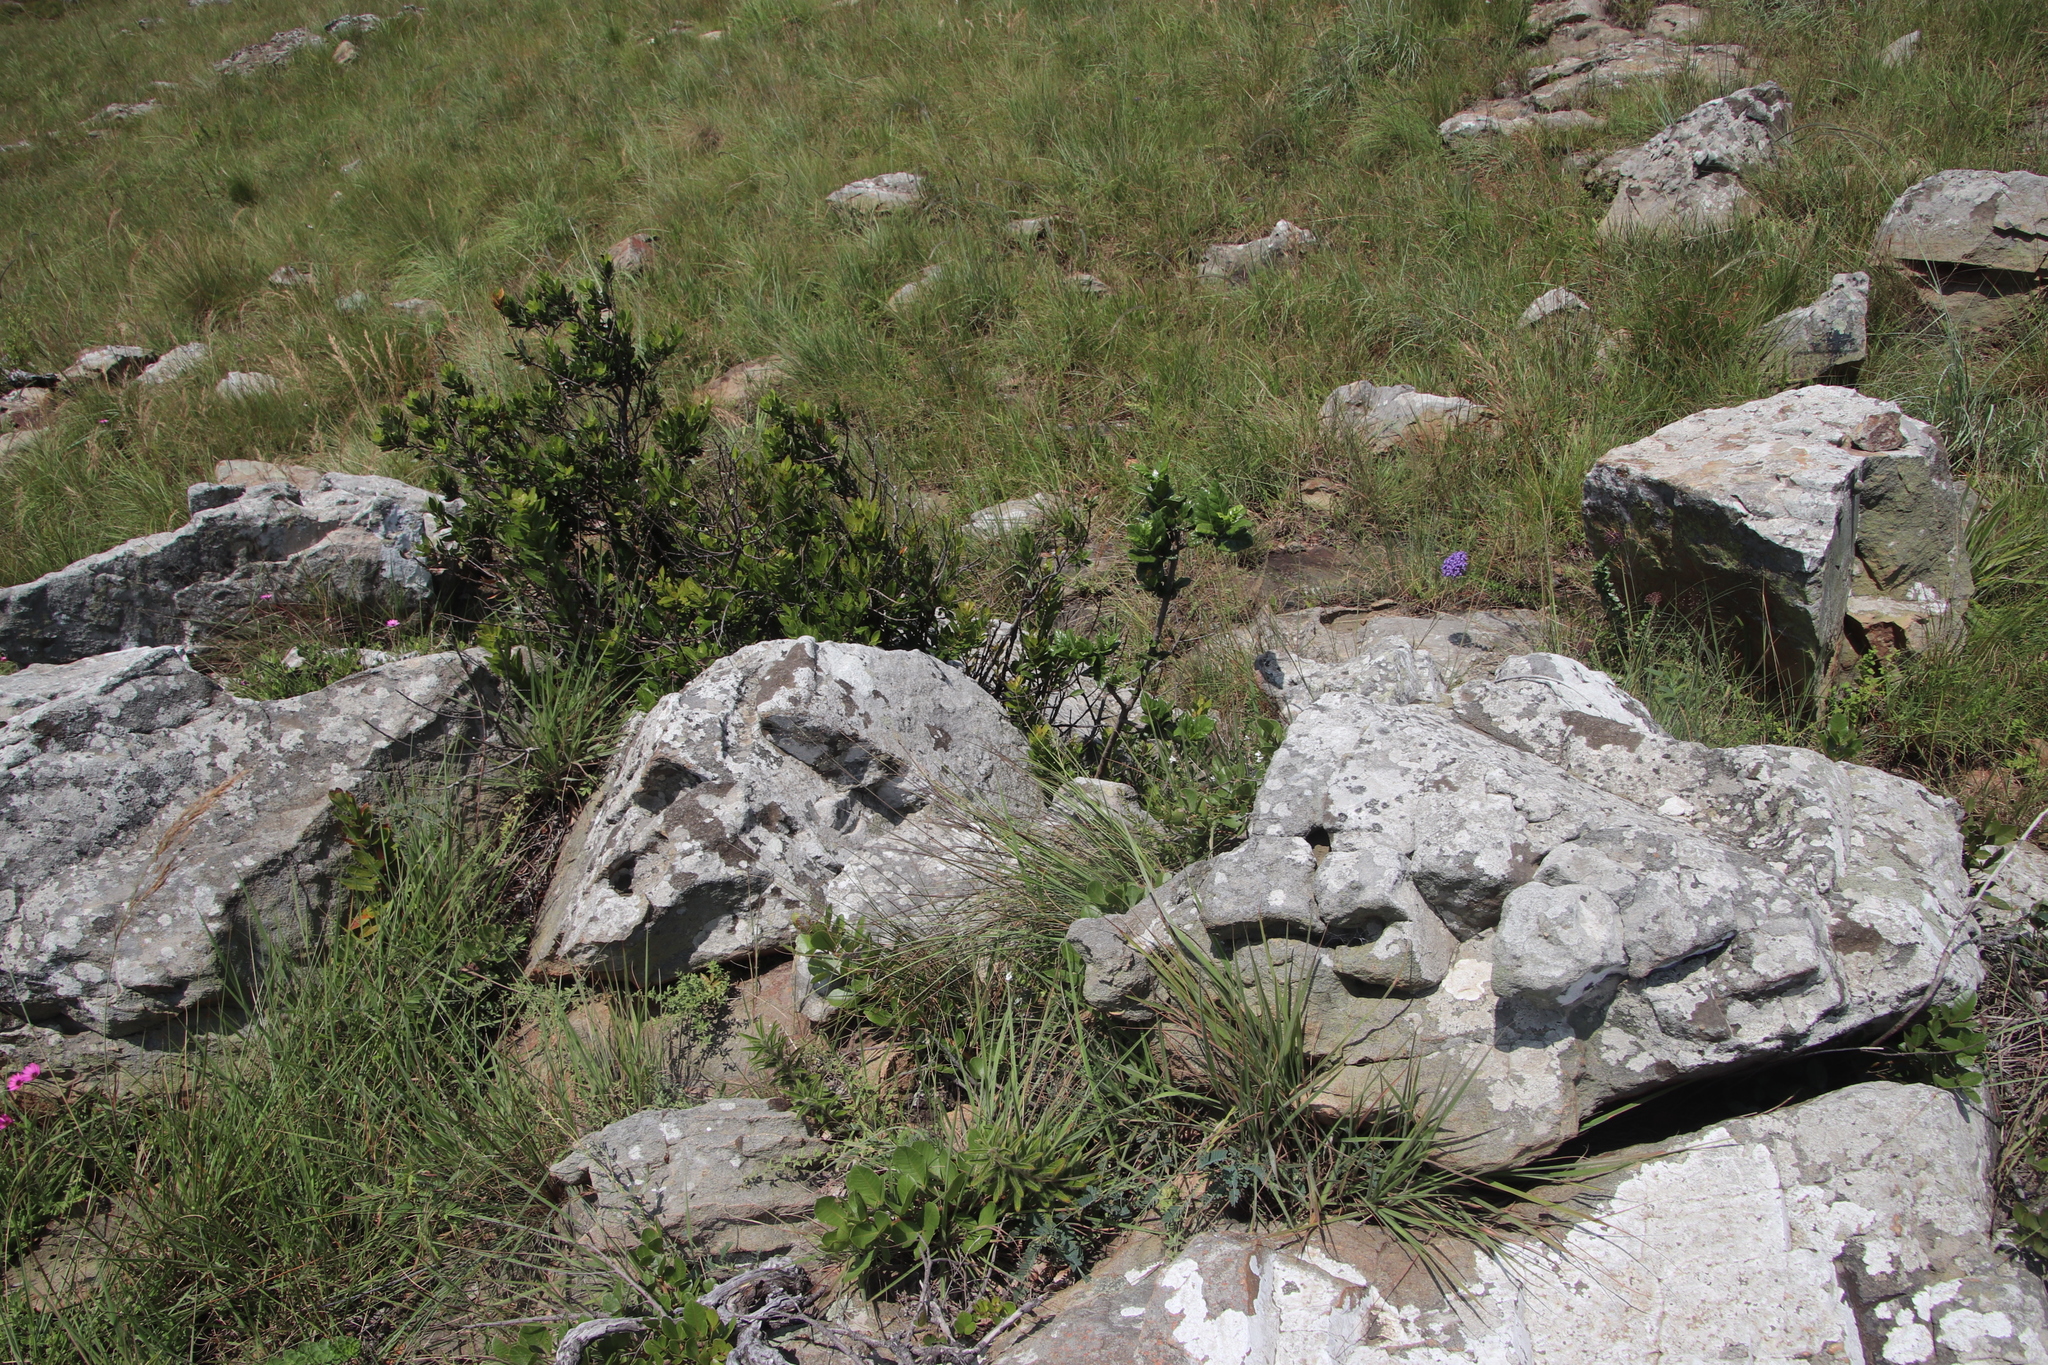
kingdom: Plantae
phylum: Tracheophyta
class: Magnoliopsida
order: Gentianales
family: Rubiaceae
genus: Burchellia
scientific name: Burchellia bubalina
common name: Wild pomegranate
